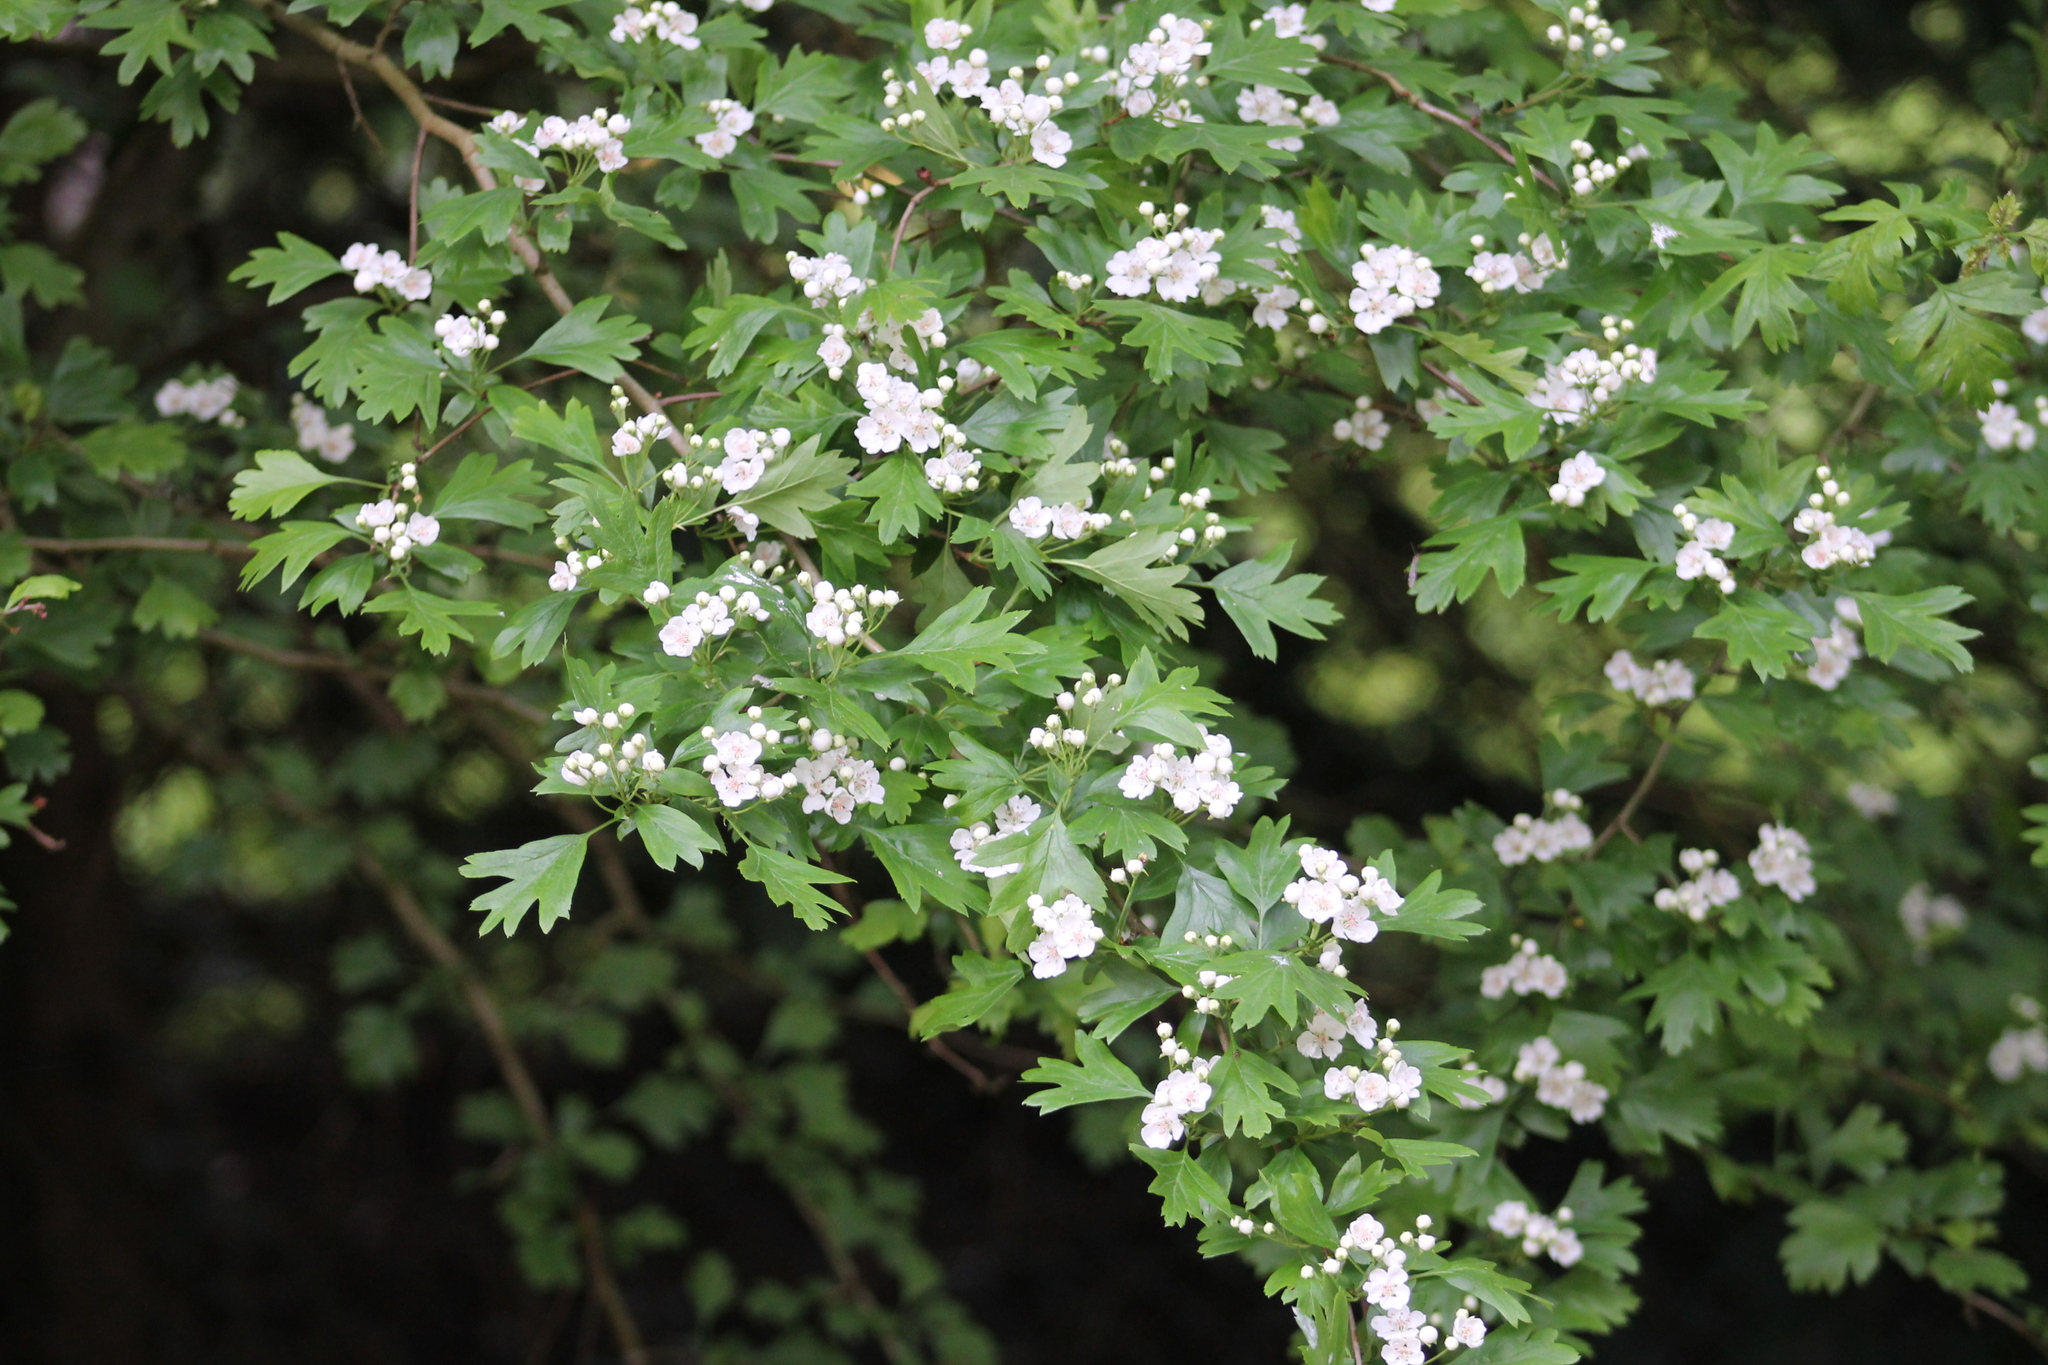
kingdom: Plantae
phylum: Tracheophyta
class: Magnoliopsida
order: Rosales
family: Rosaceae
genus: Crataegus
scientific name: Crataegus monogyna
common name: Hawthorn
